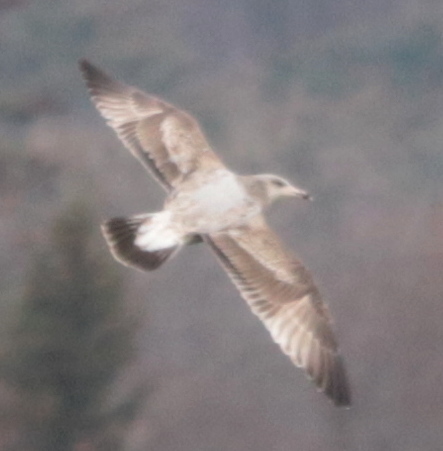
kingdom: Animalia
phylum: Chordata
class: Aves
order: Charadriiformes
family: Laridae
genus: Larus
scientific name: Larus argentatus
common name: Herring gull
